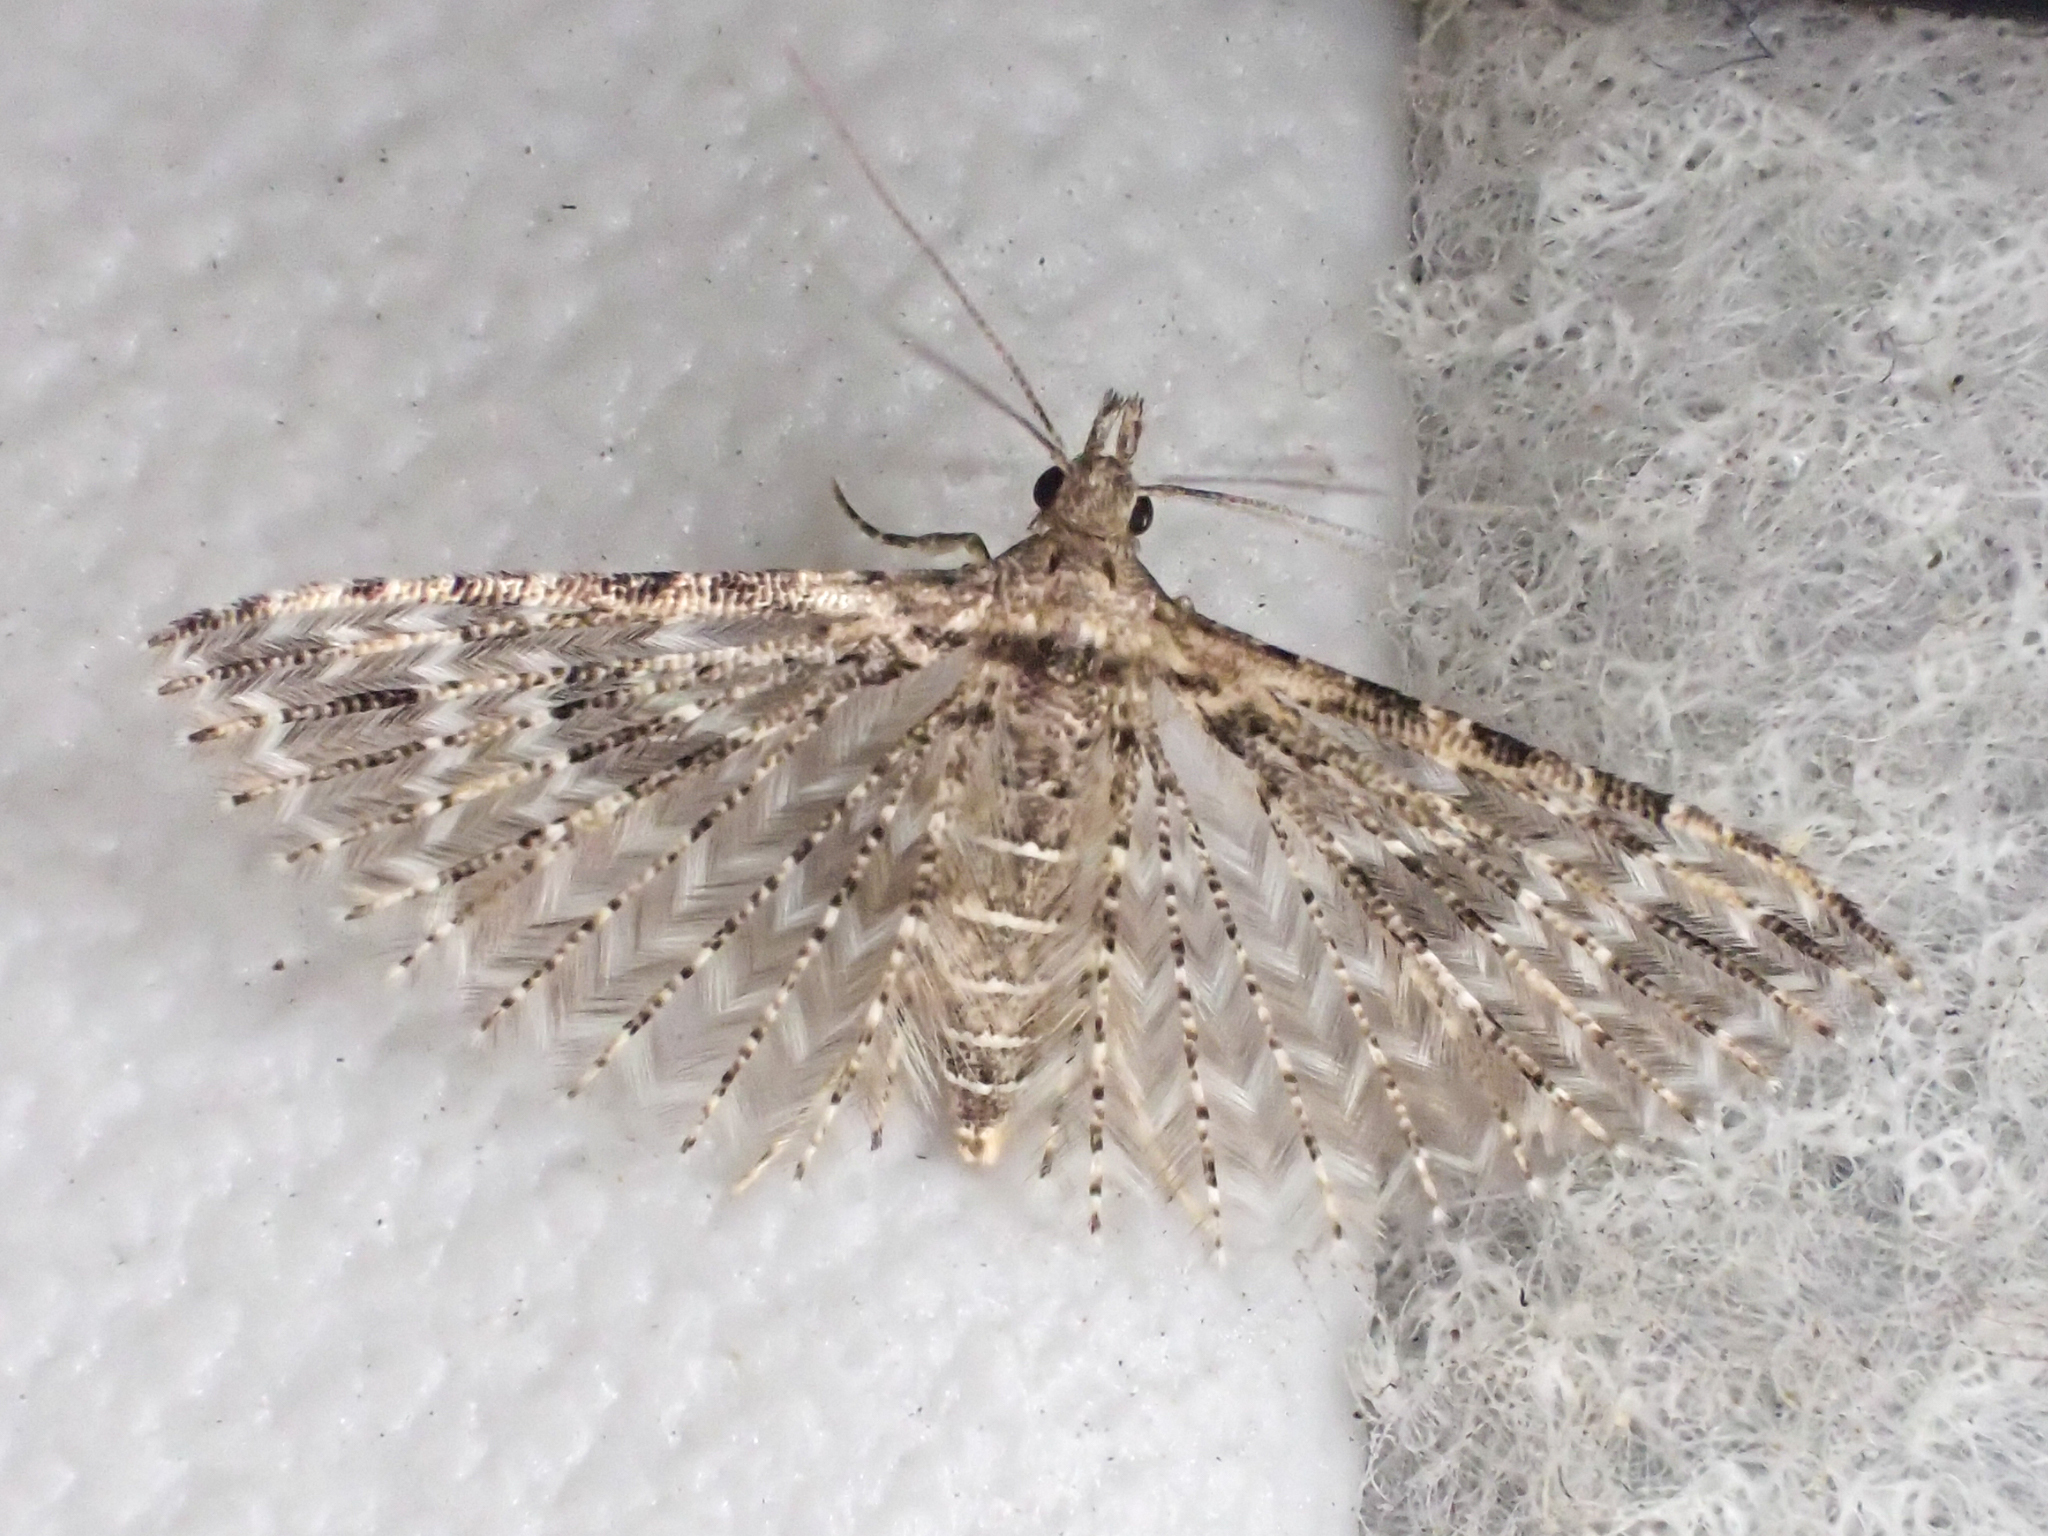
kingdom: Animalia
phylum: Arthropoda
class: Insecta
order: Lepidoptera
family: Alucitidae
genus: Alucita
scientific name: Alucita montana
